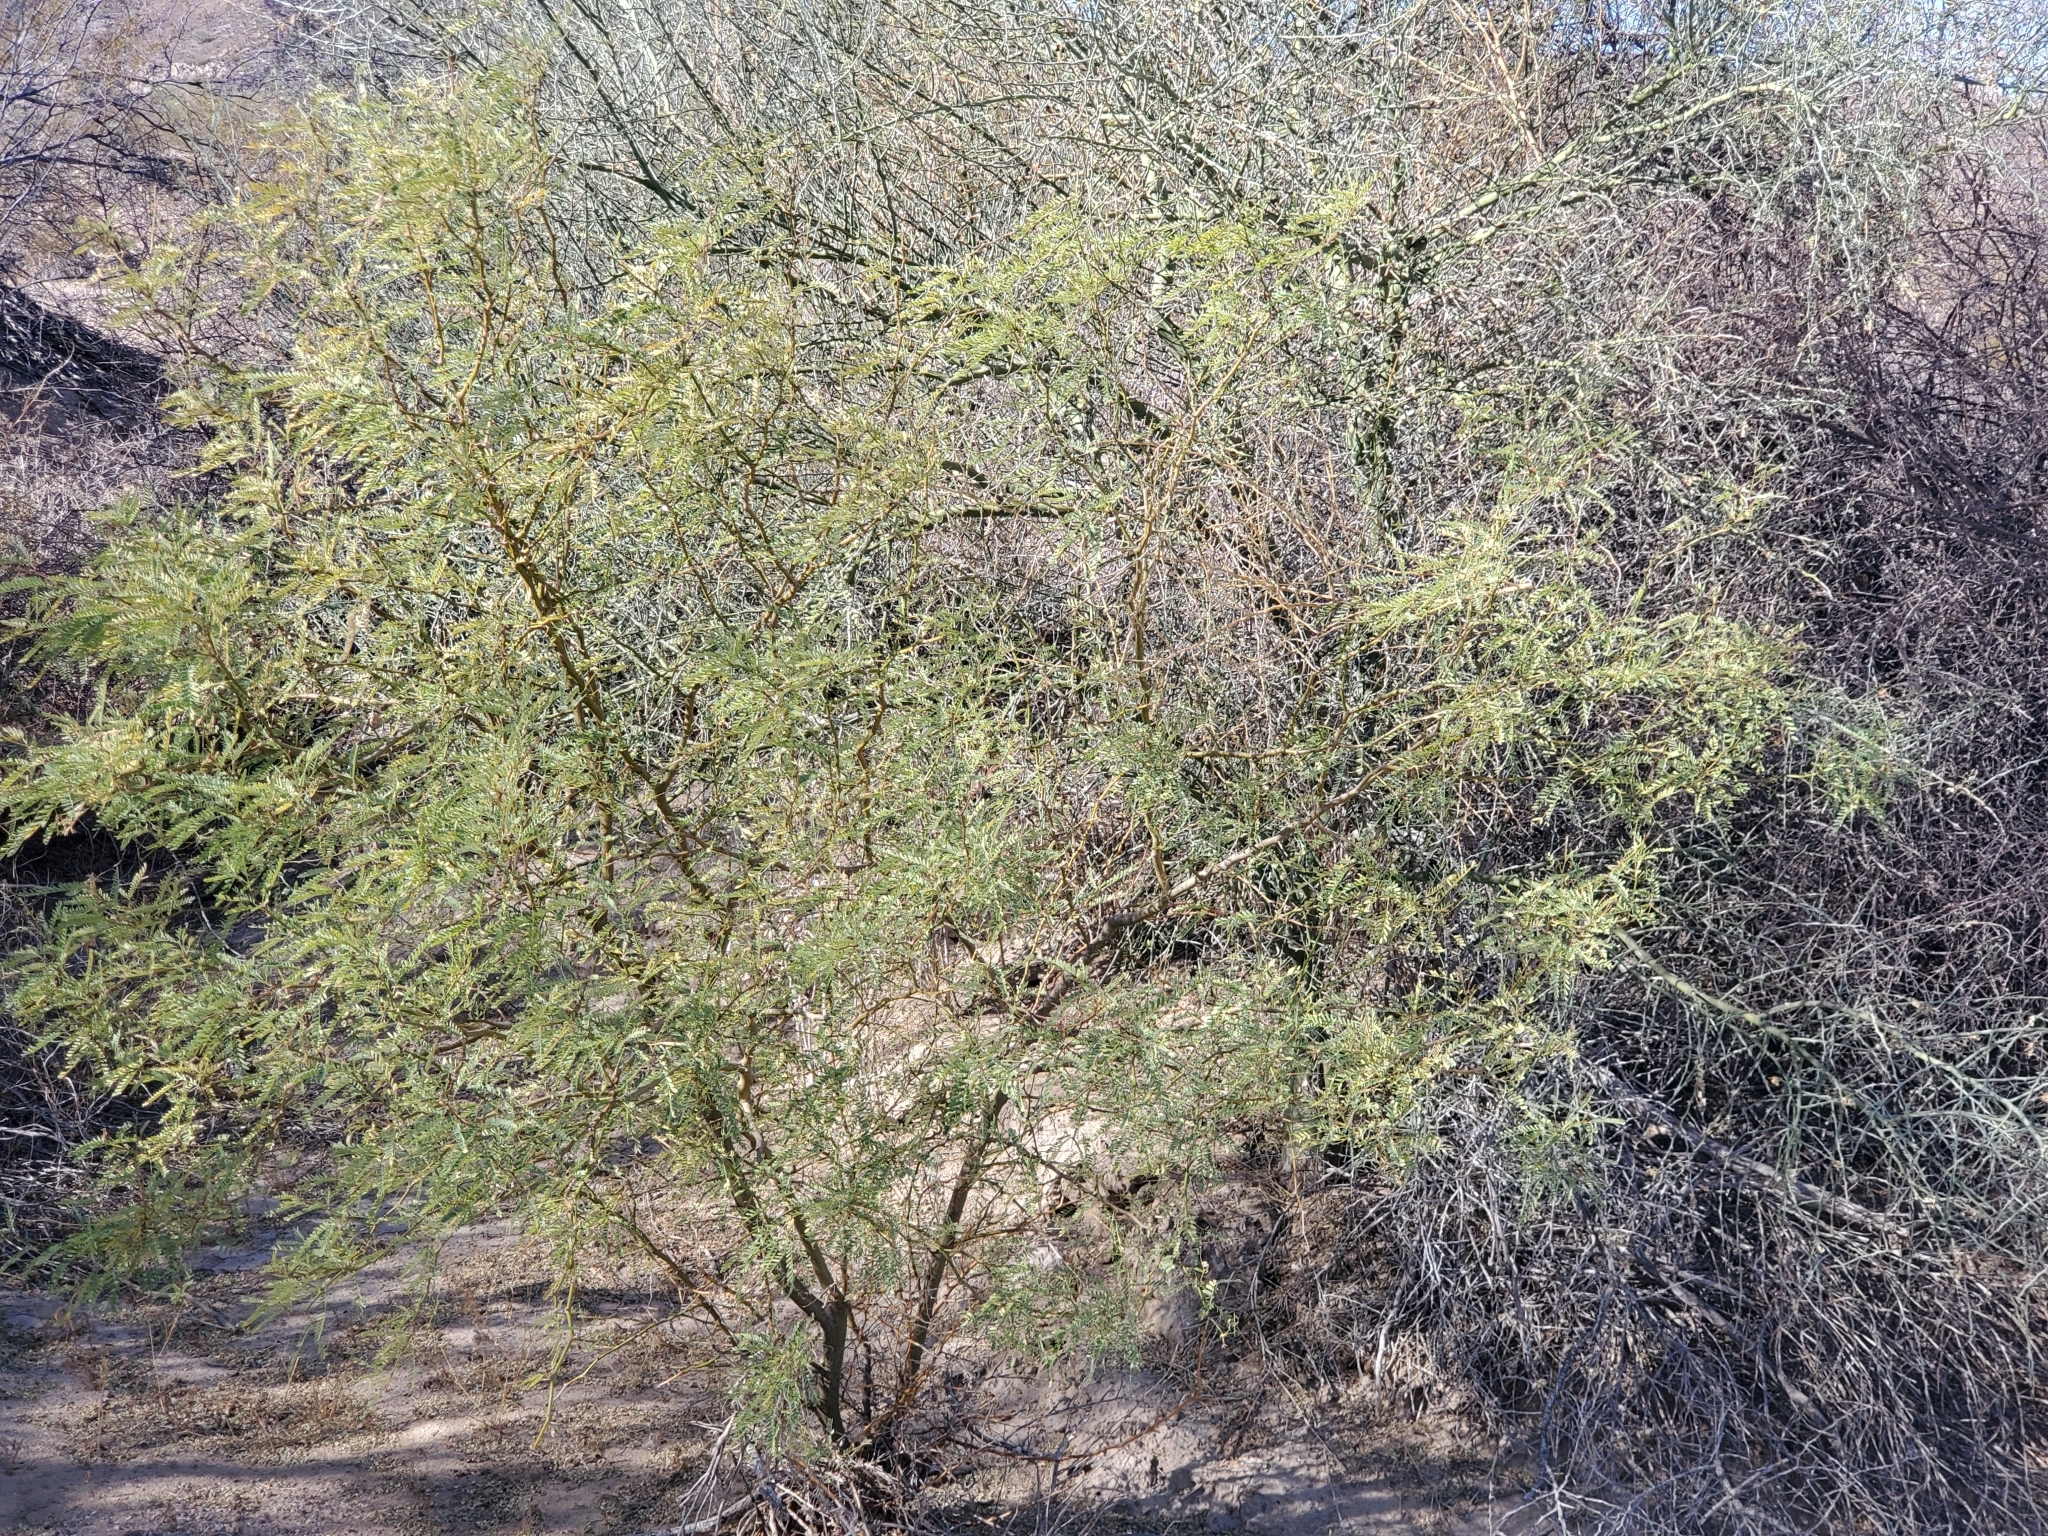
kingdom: Plantae
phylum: Tracheophyta
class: Magnoliopsida
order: Fabales
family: Fabaceae
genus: Prosopis
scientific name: Prosopis velutina
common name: Velvet mesquite
